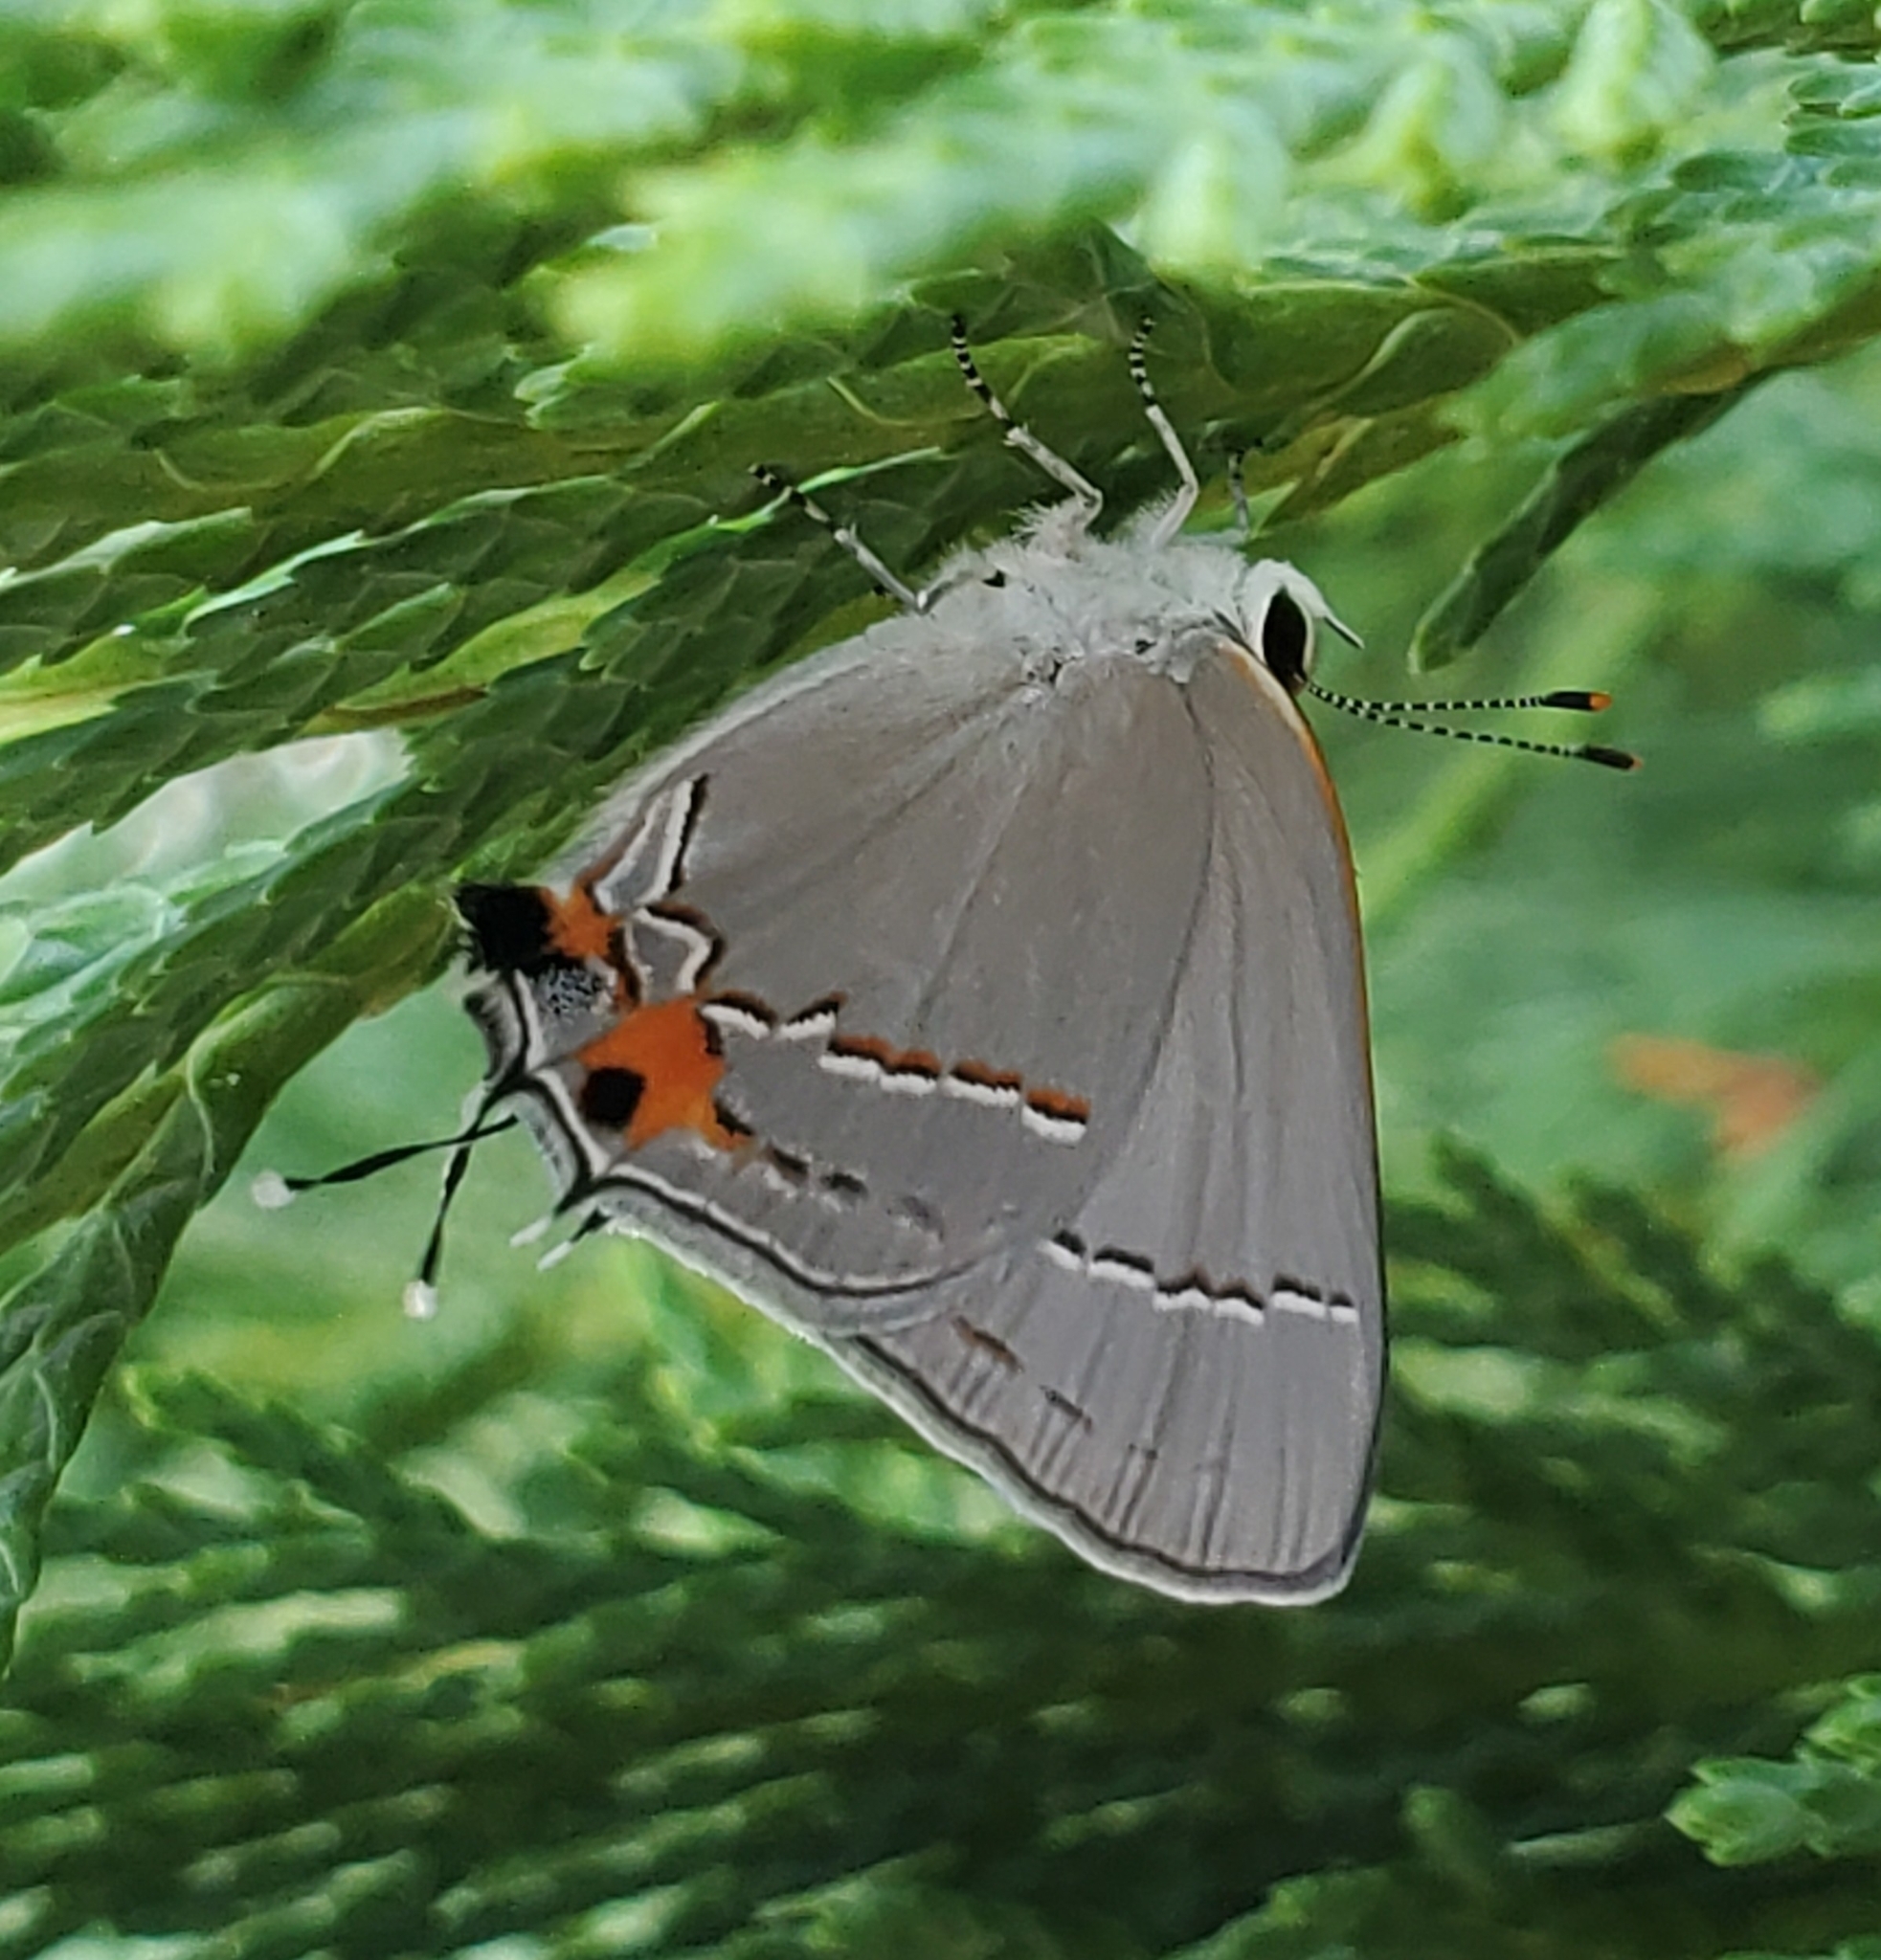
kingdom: Animalia
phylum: Arthropoda
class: Insecta
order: Lepidoptera
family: Lycaenidae
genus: Strymon
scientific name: Strymon melinus
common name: Gray hairstreak
